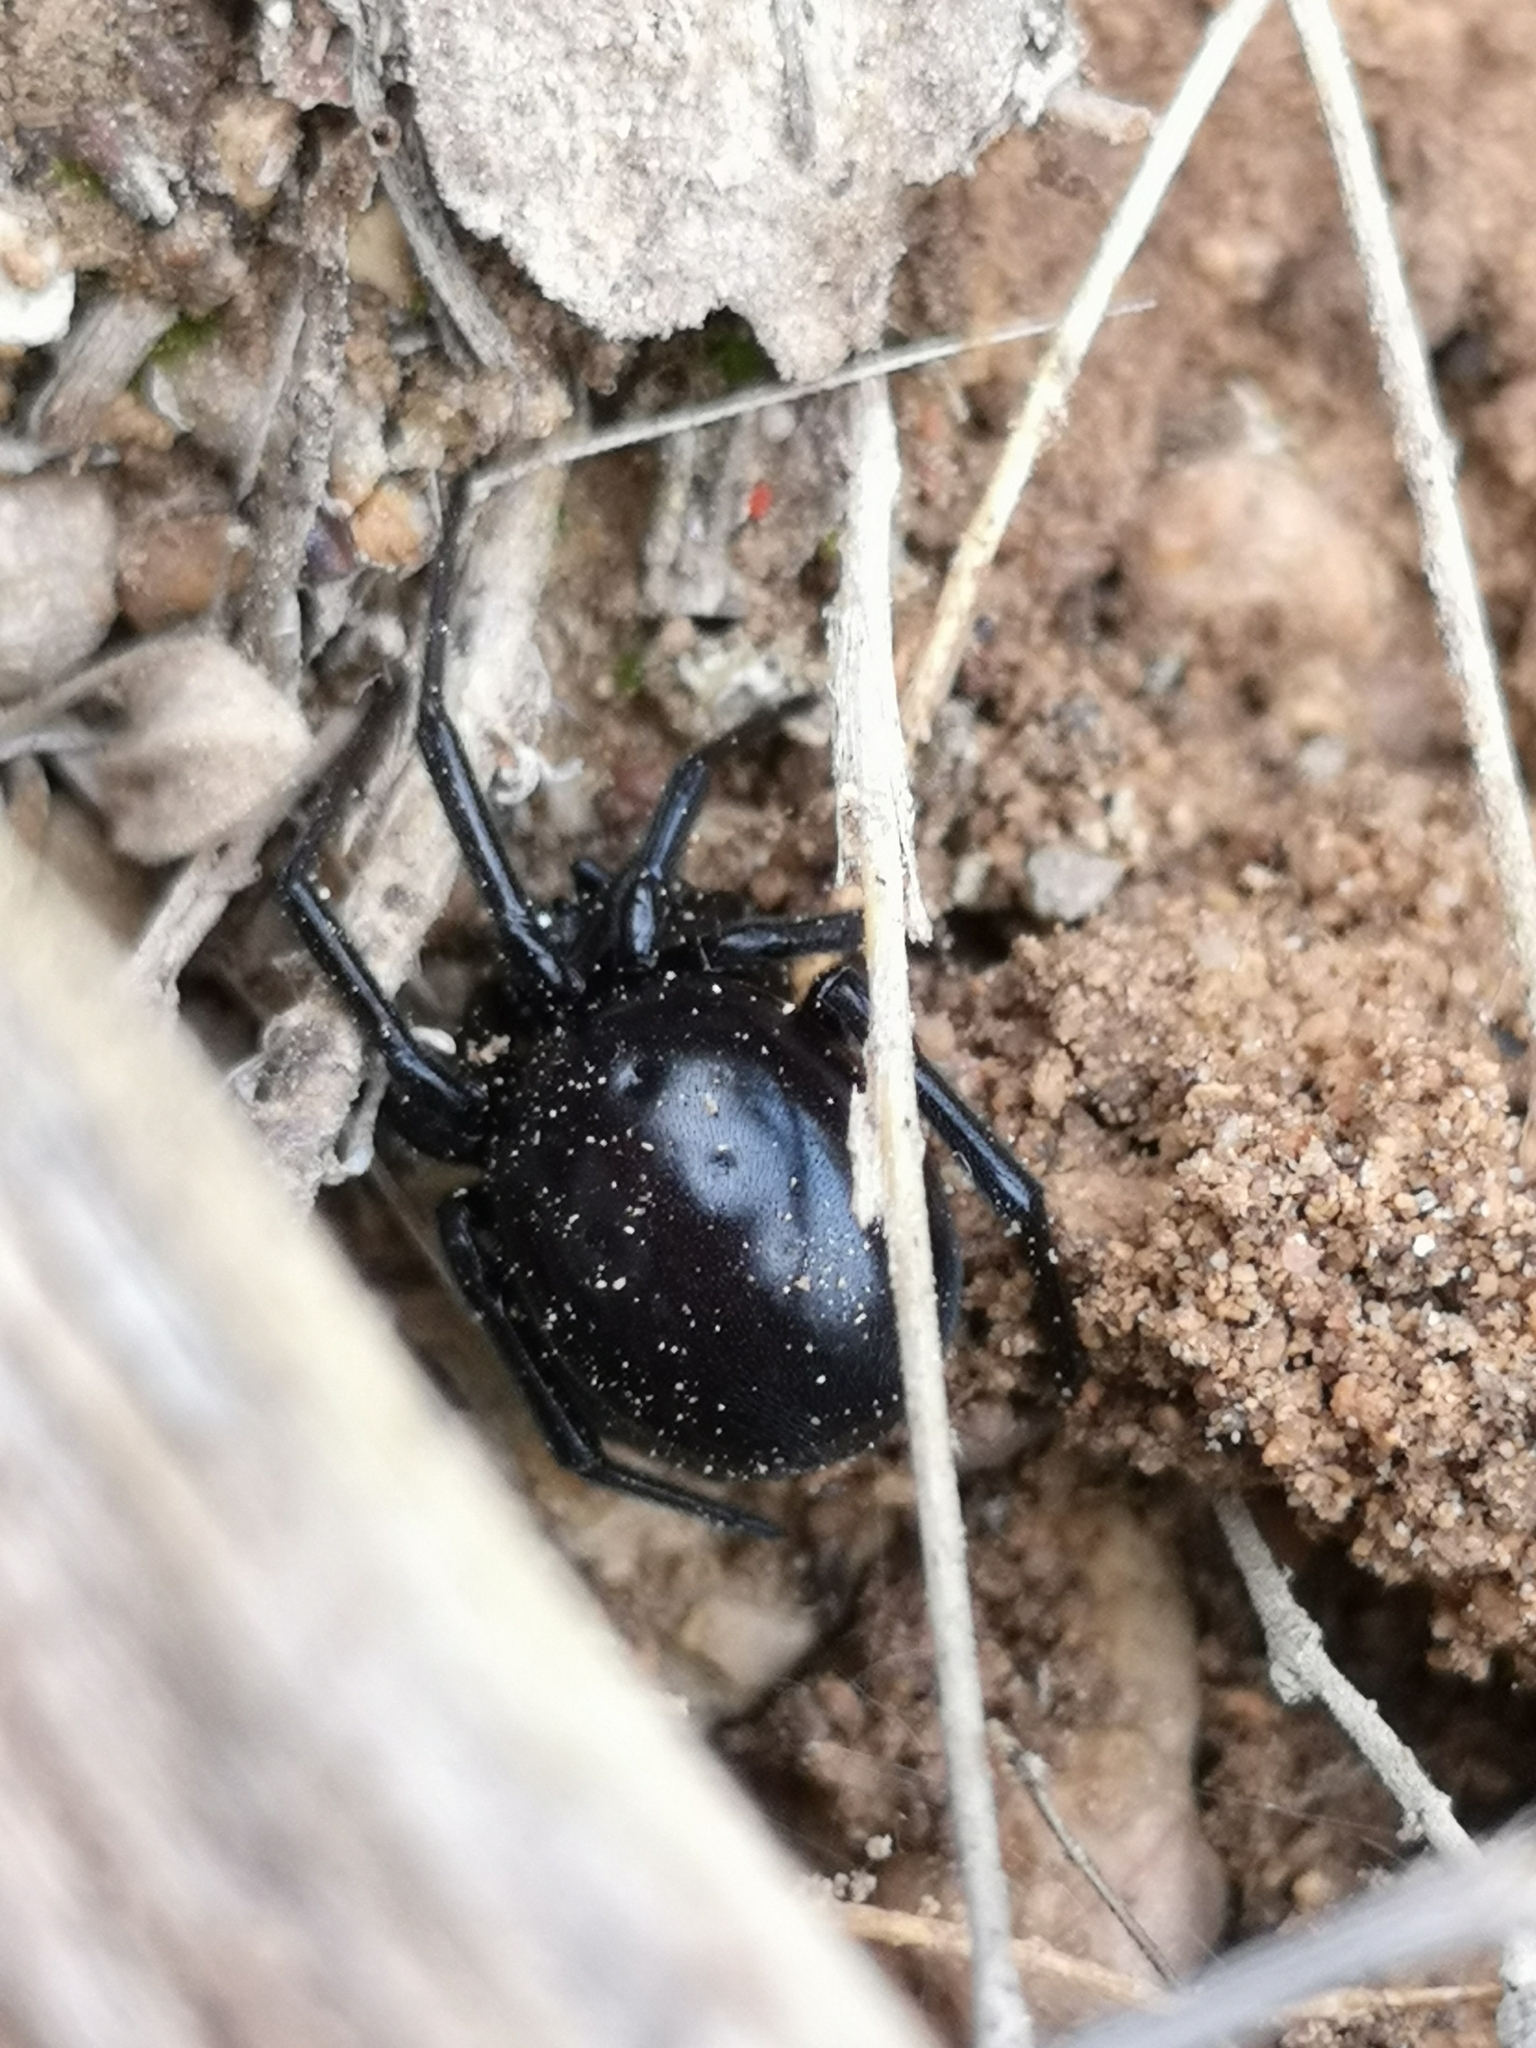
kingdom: Animalia
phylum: Arthropoda
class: Arachnida
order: Araneae
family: Theridiidae
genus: Steatoda
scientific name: Steatoda paykulliana
